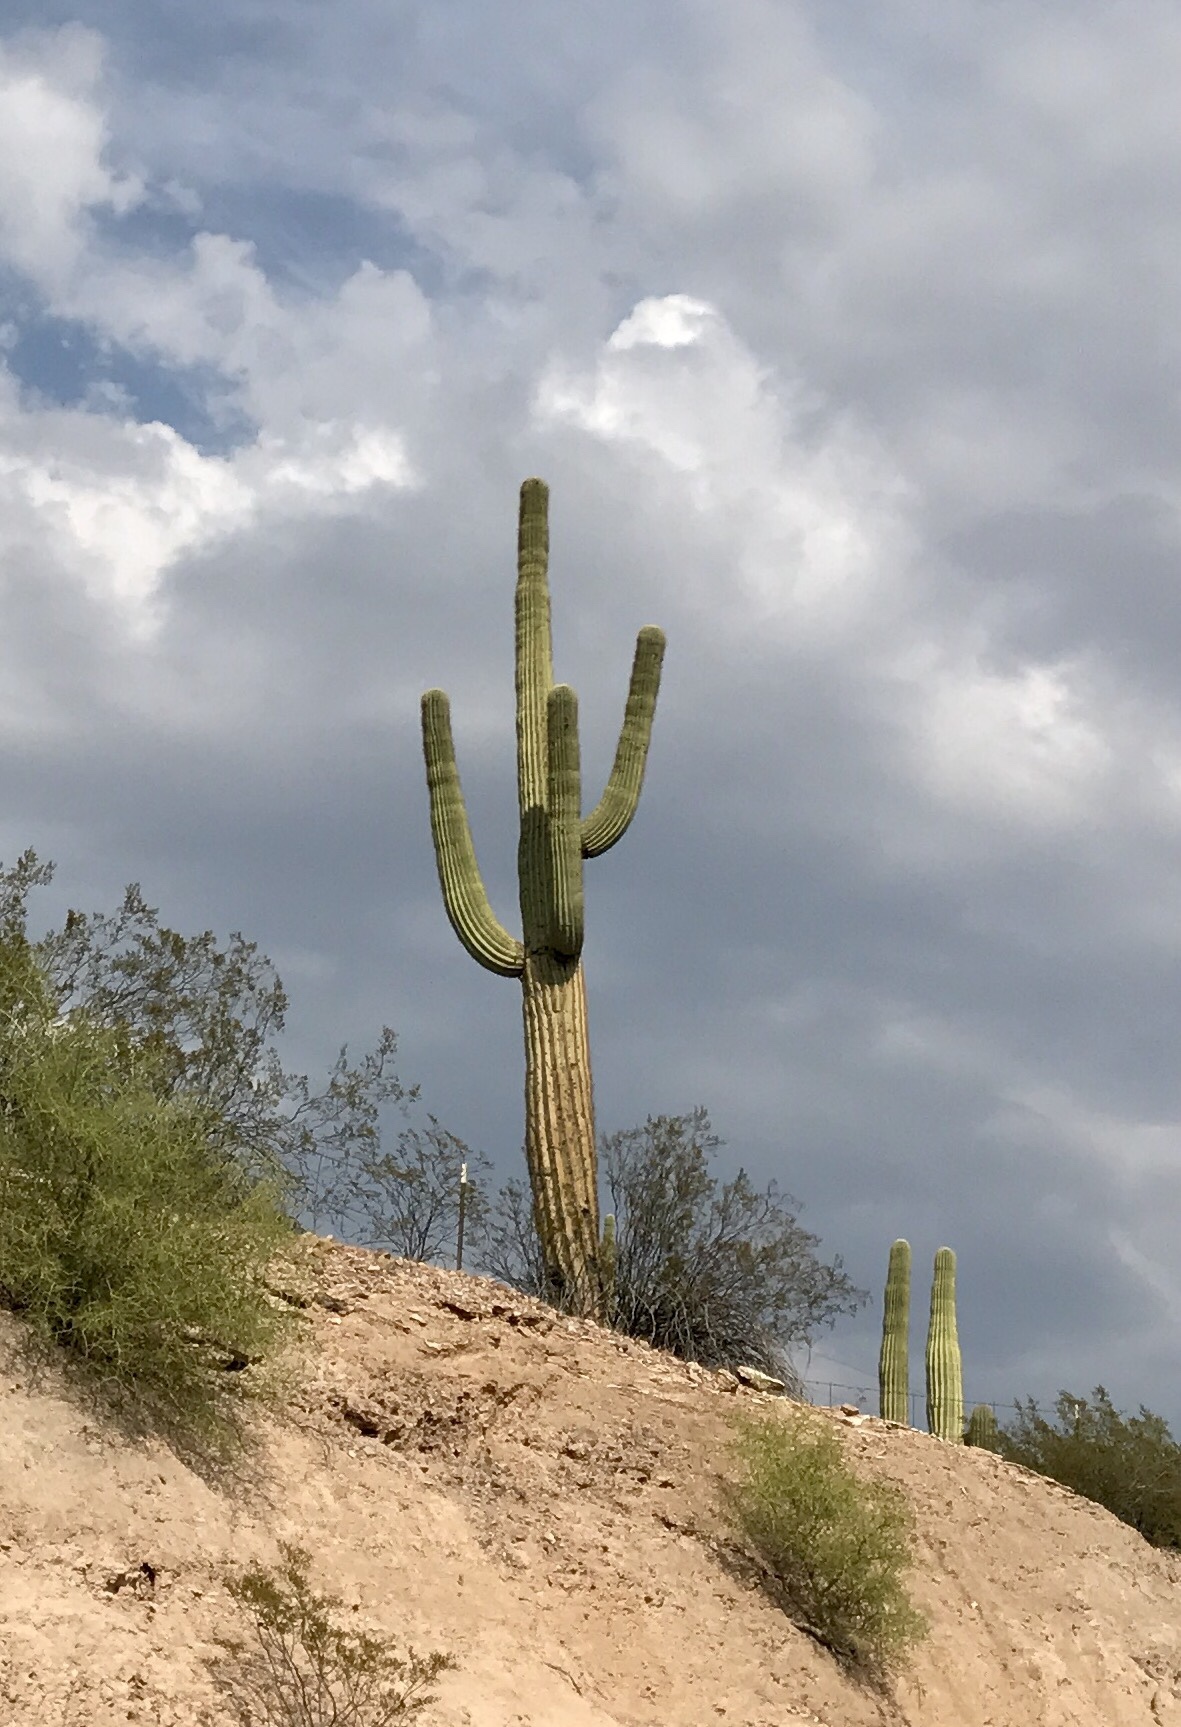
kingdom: Plantae
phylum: Tracheophyta
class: Magnoliopsida
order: Caryophyllales
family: Cactaceae
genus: Carnegiea
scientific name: Carnegiea gigantea
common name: Saguaro
